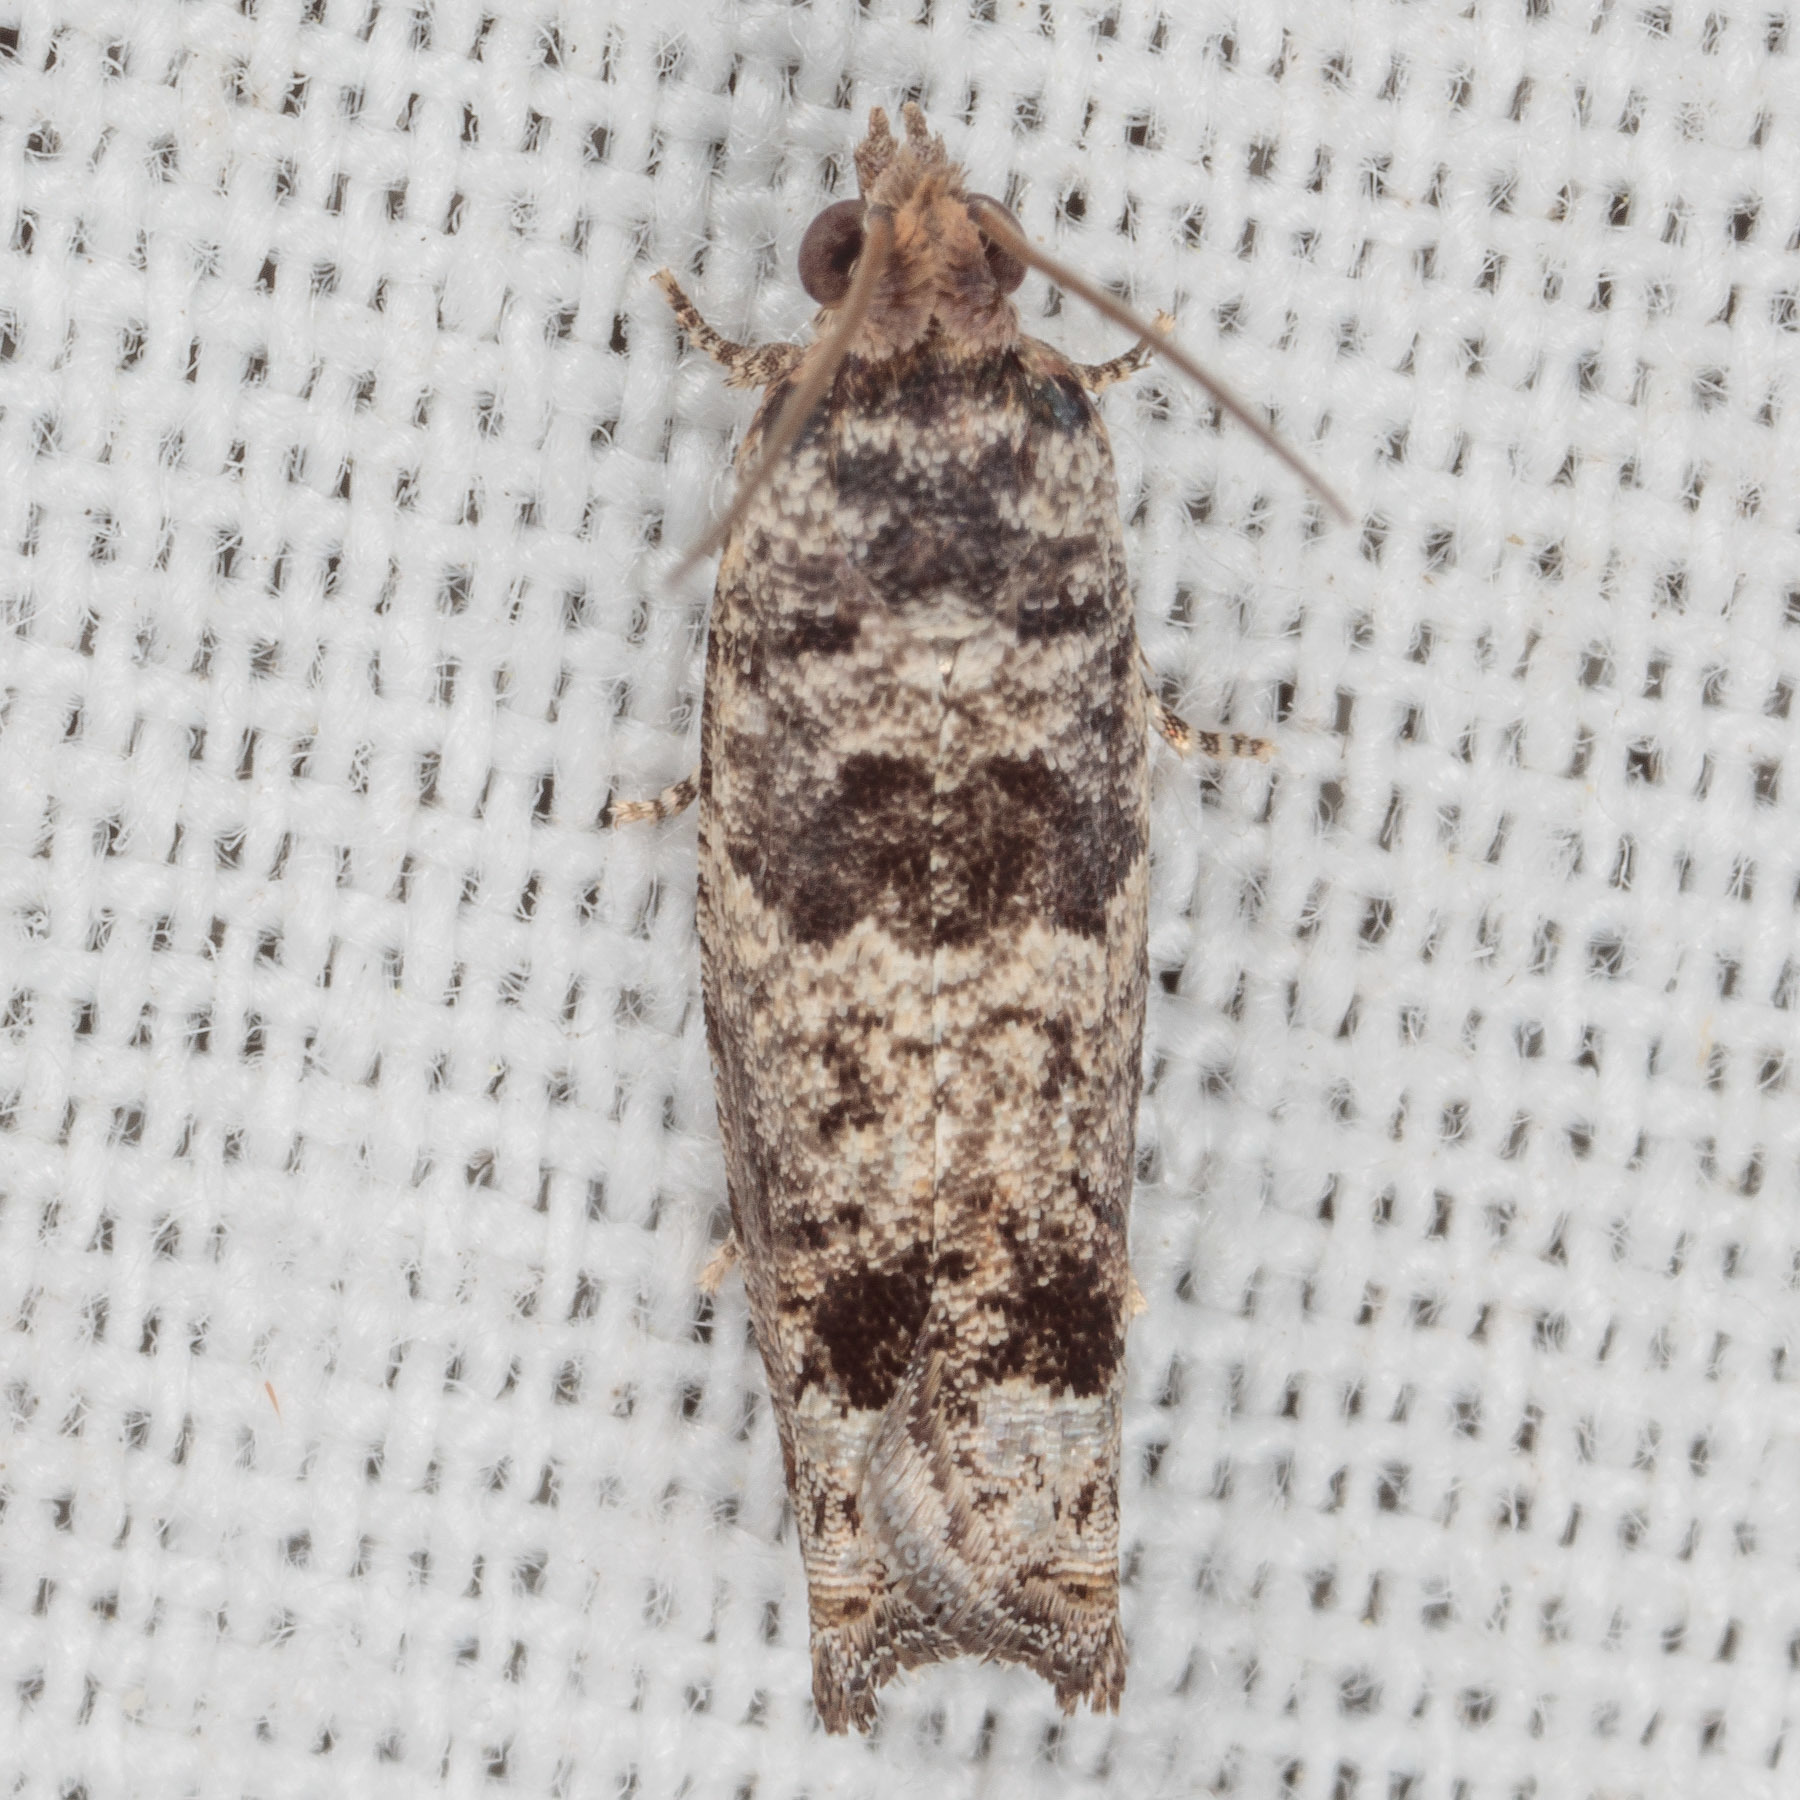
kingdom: Animalia
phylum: Arthropoda
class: Insecta
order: Lepidoptera
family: Tortricidae
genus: Pseudexentera
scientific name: Pseudexentera knudsoni
